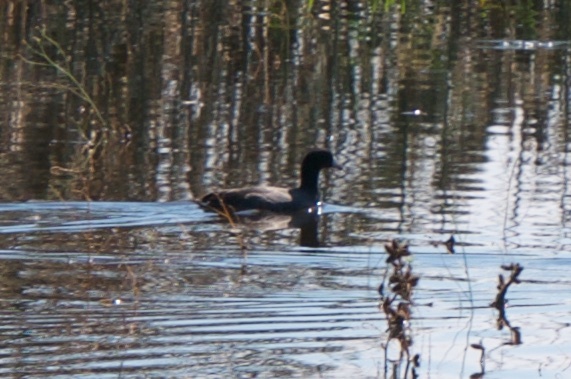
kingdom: Animalia
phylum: Chordata
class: Aves
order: Gruiformes
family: Rallidae
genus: Fulica
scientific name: Fulica americana
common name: American coot
